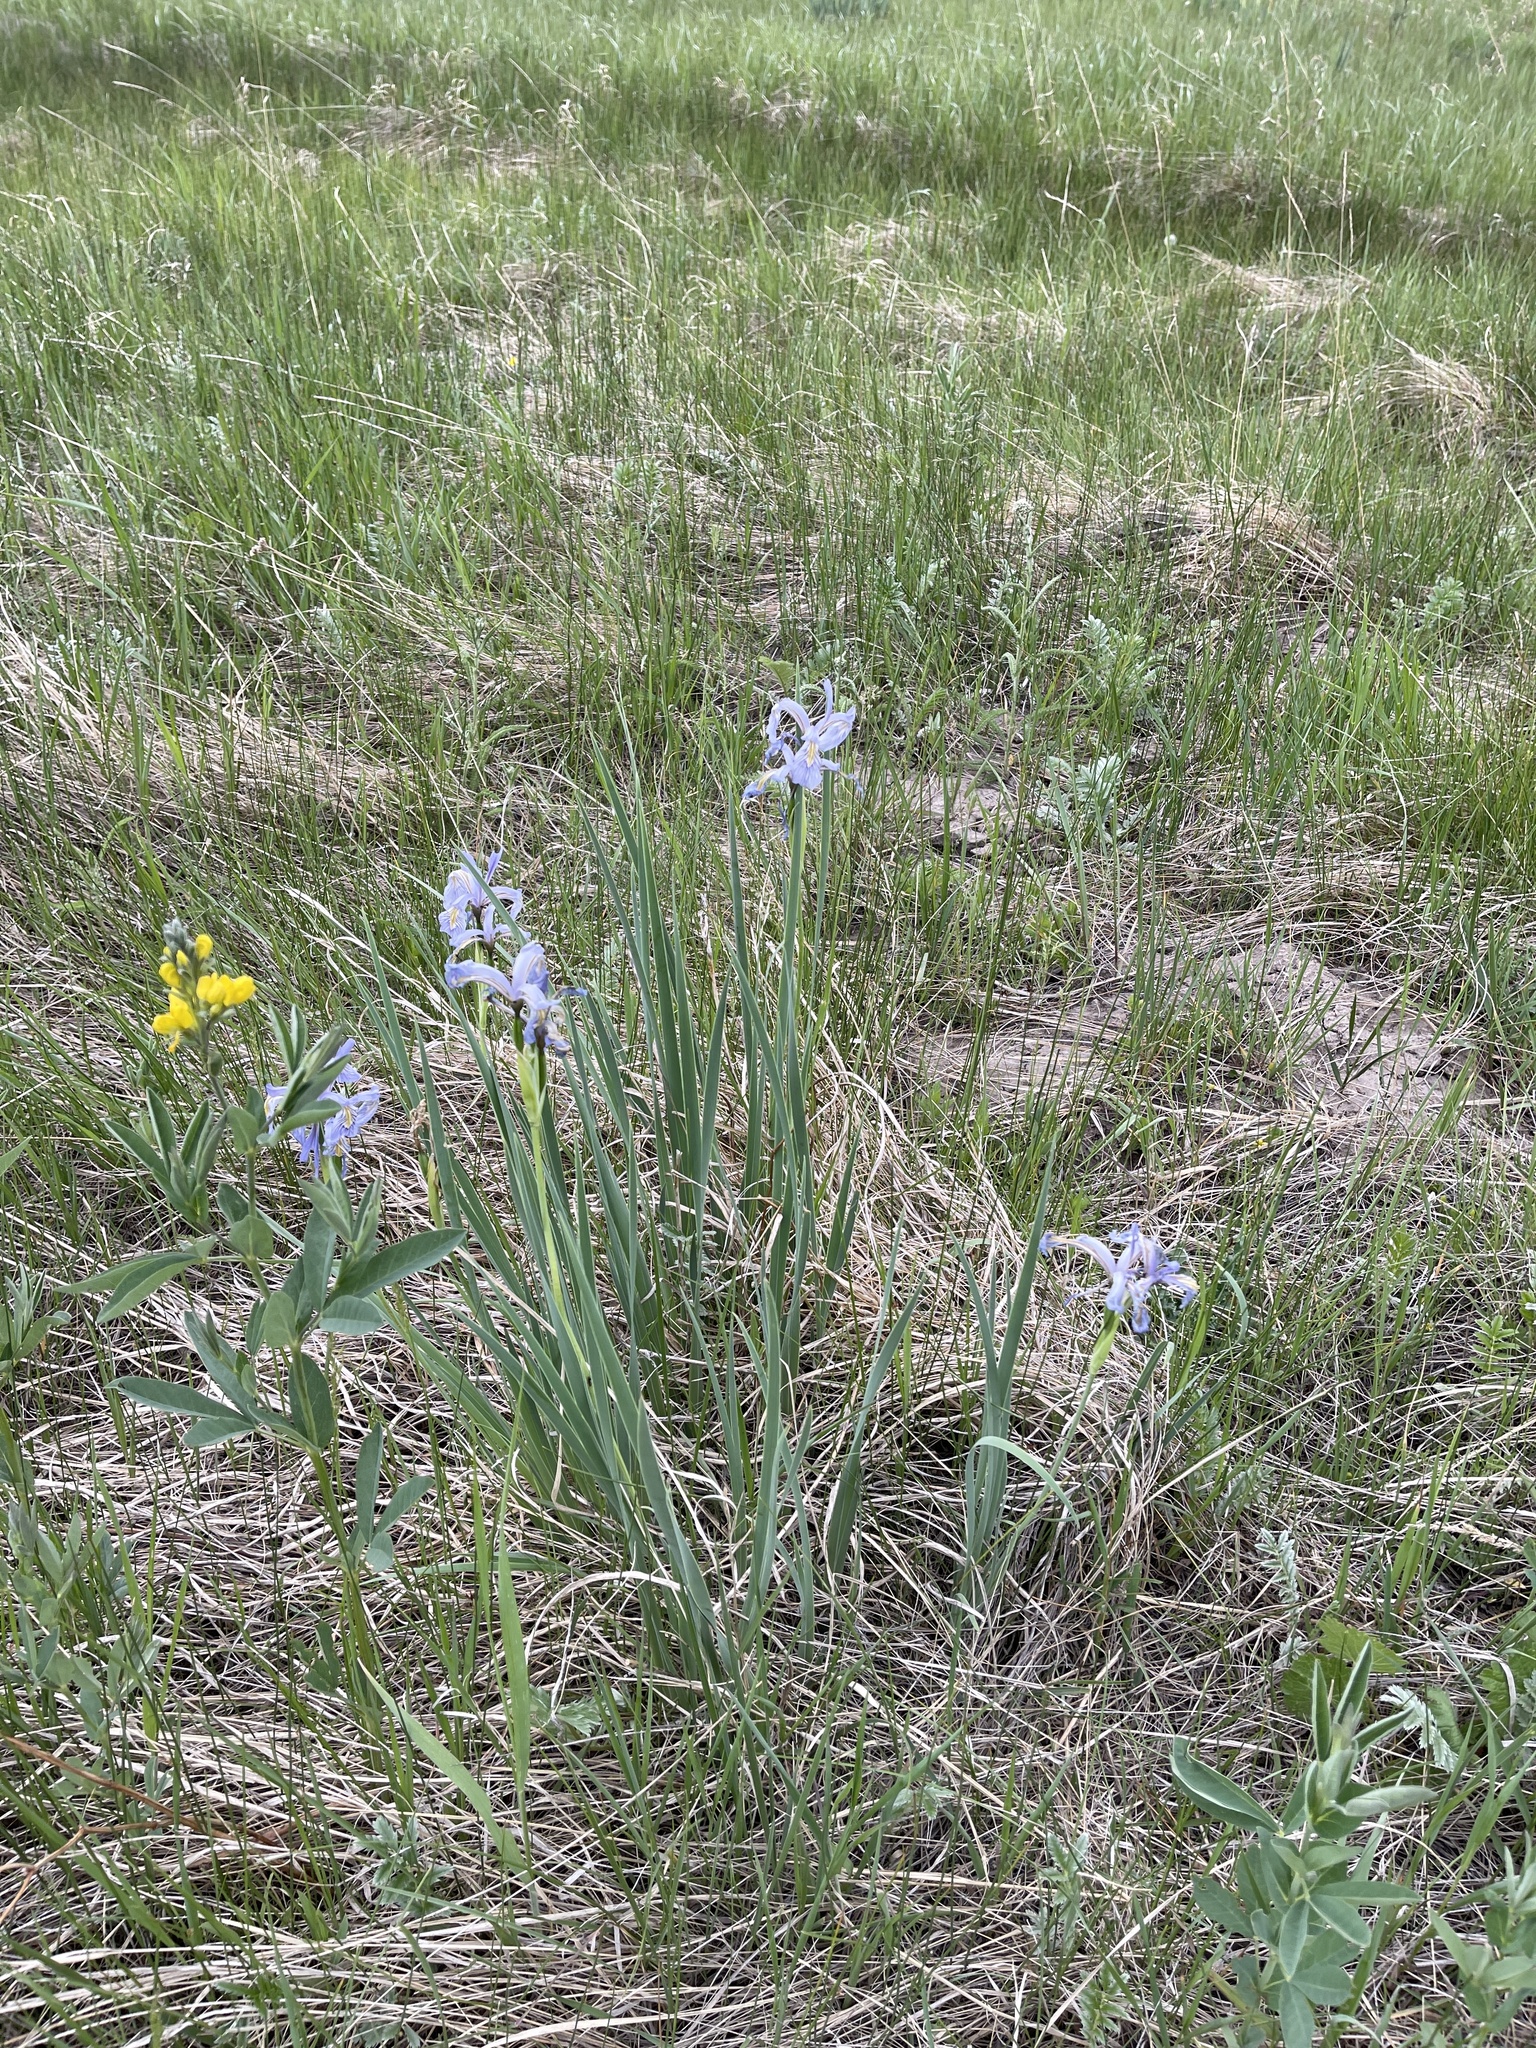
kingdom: Plantae
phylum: Tracheophyta
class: Liliopsida
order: Asparagales
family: Iridaceae
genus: Iris
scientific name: Iris missouriensis
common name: Rocky mountain iris
